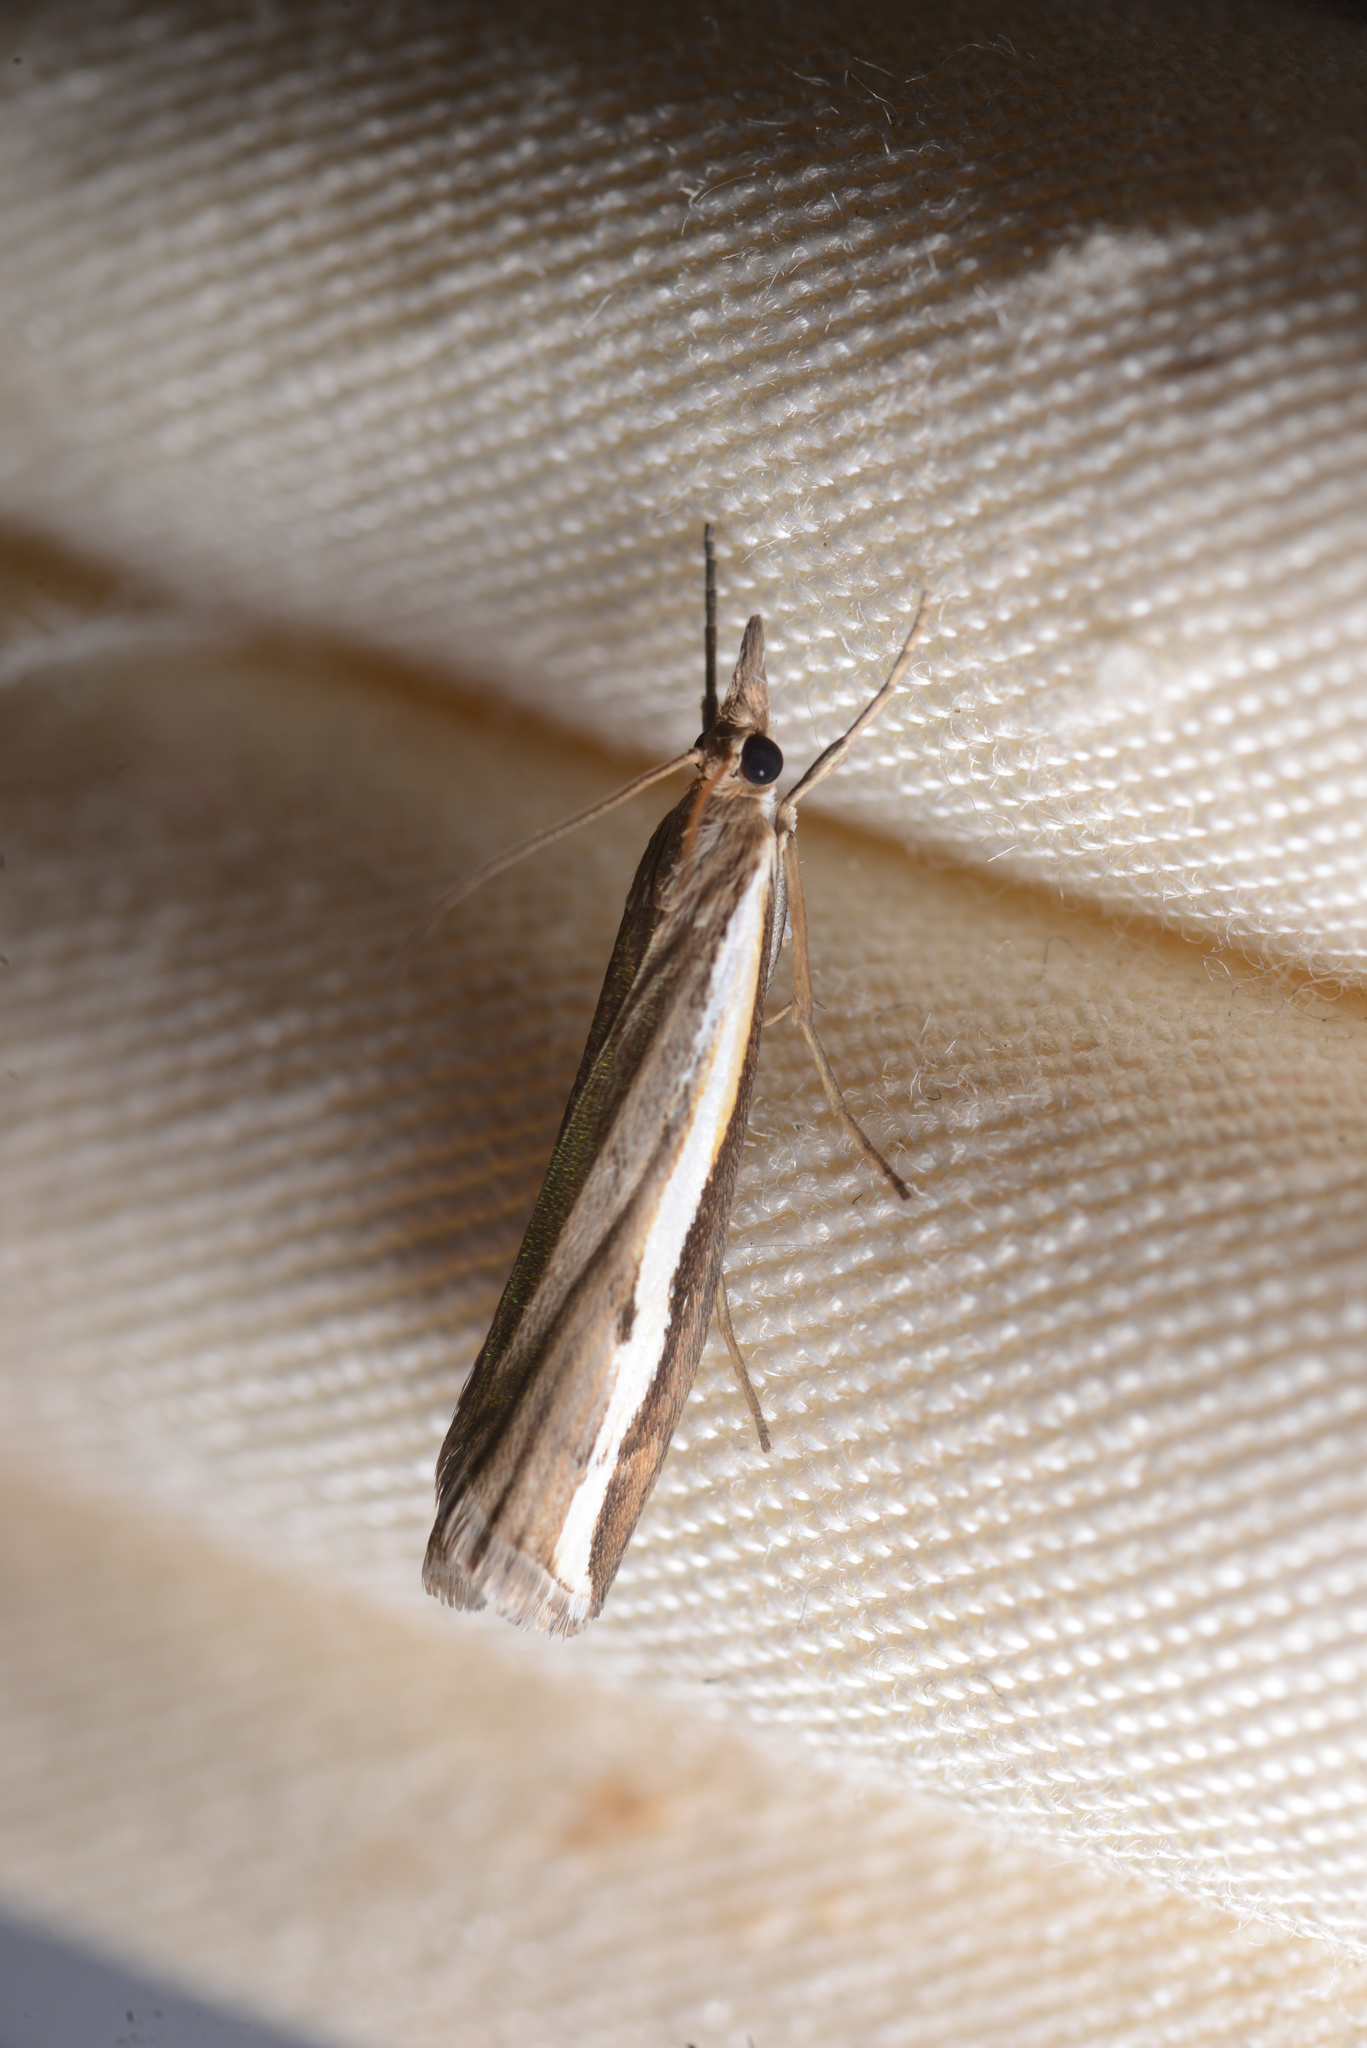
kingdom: Animalia
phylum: Arthropoda
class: Insecta
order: Lepidoptera
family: Crambidae
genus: Orocrambus
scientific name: Orocrambus flexuosellus
